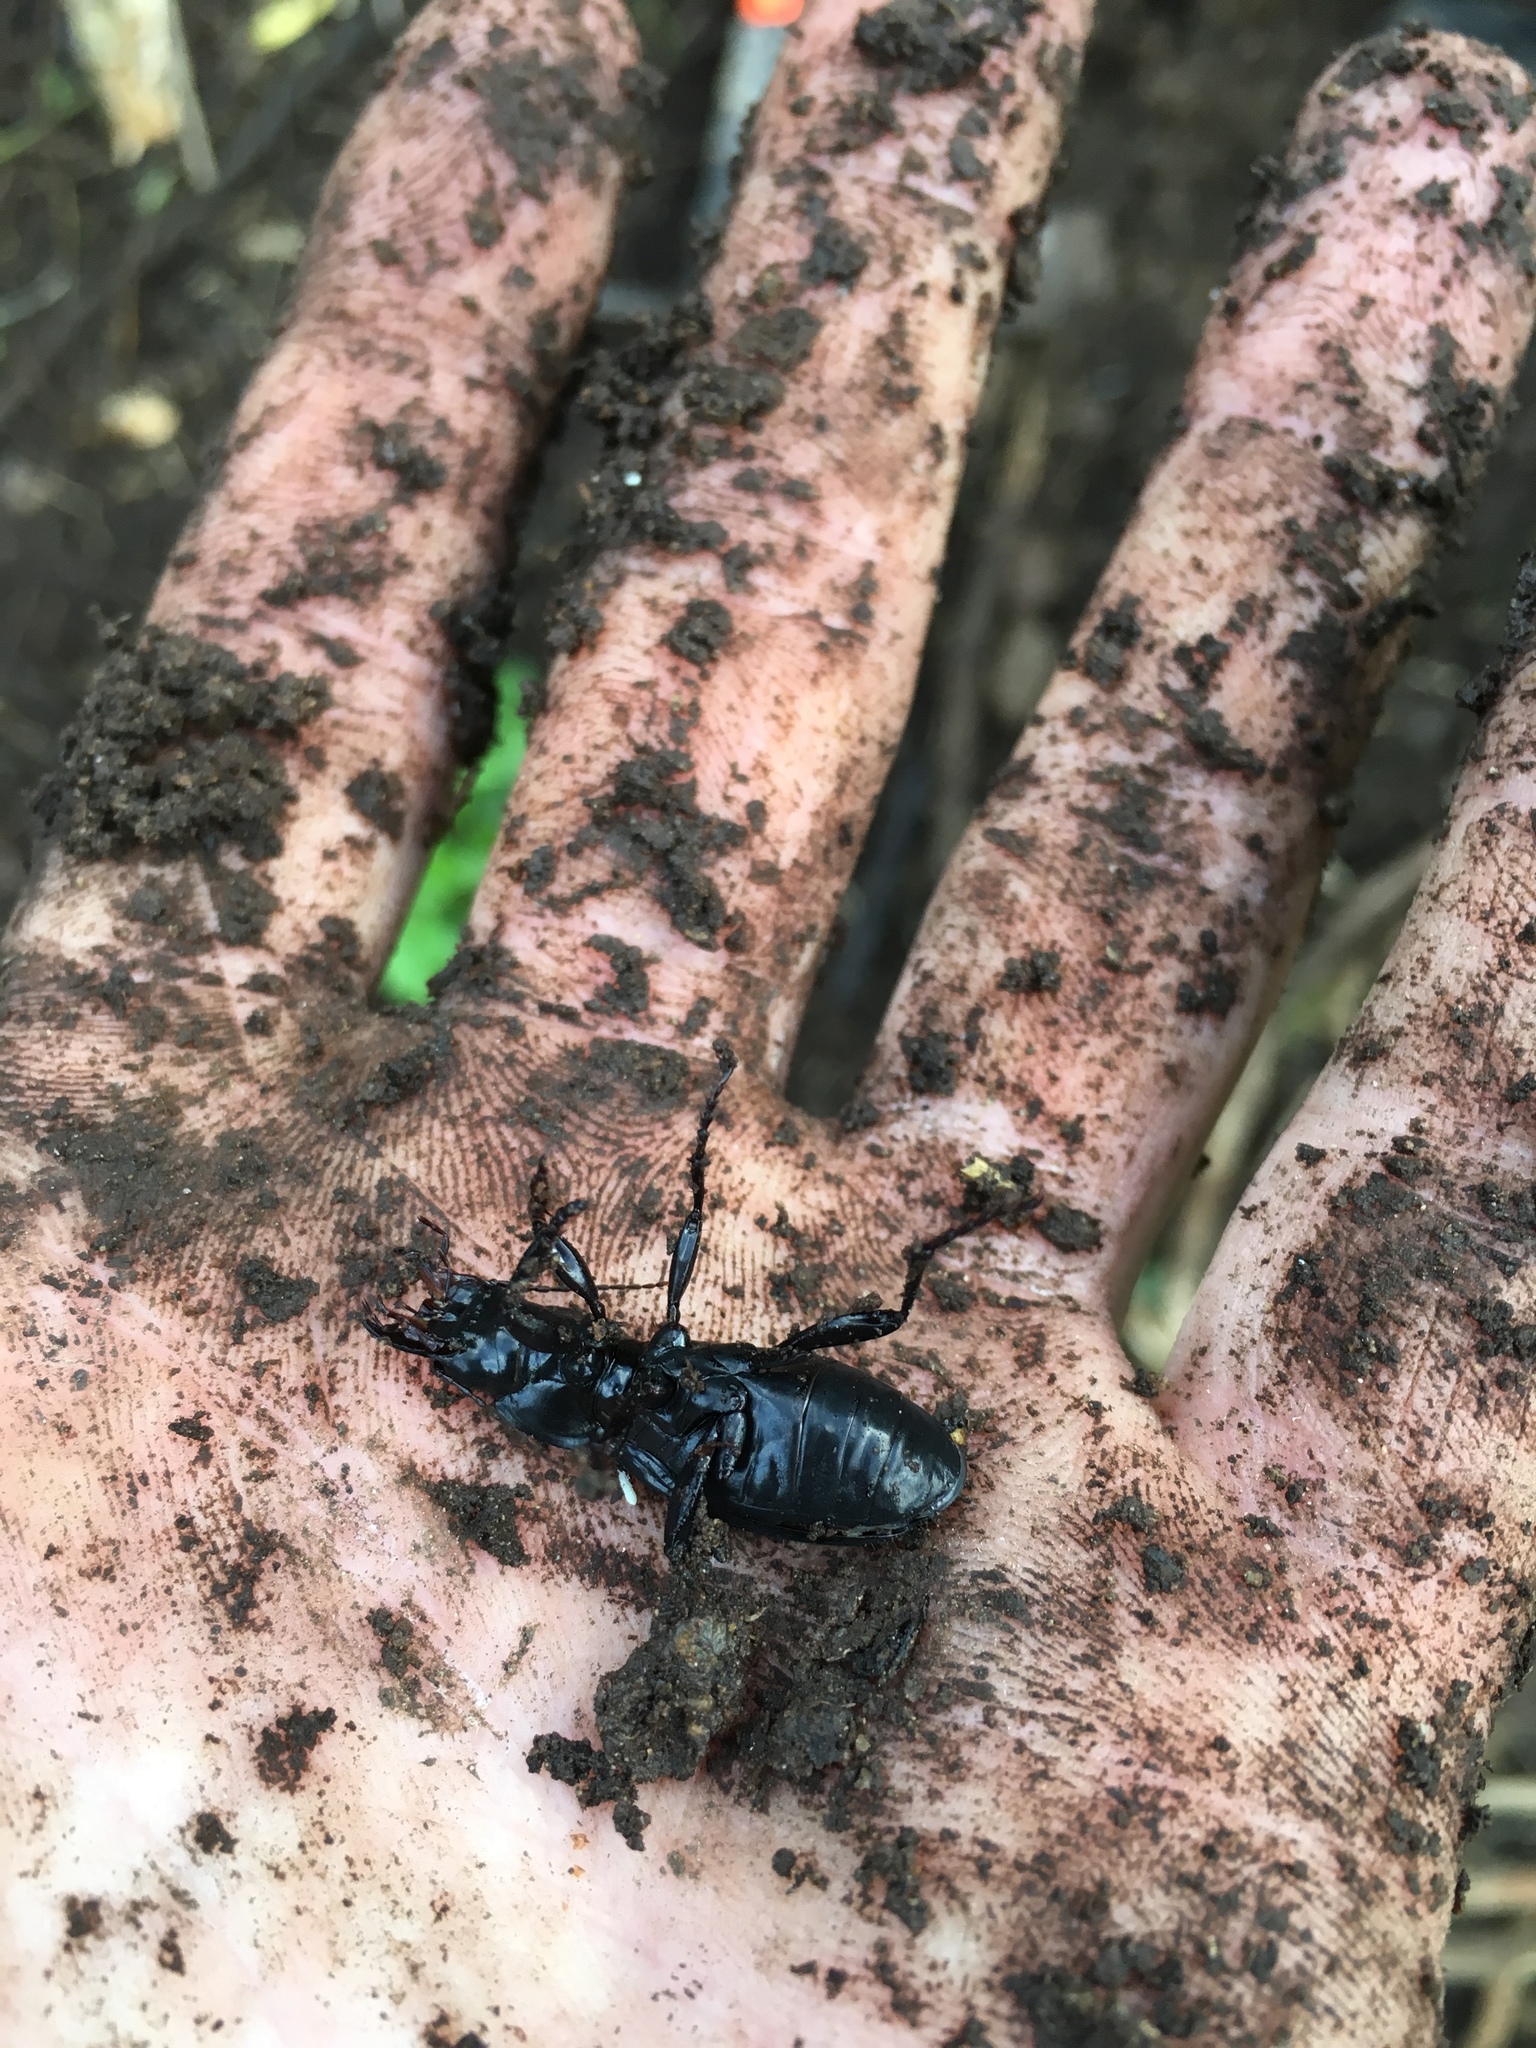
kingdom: Animalia
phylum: Arthropoda
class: Insecta
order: Coleoptera
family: Carabidae
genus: Plocamostethus
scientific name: Plocamostethus planiusculus
